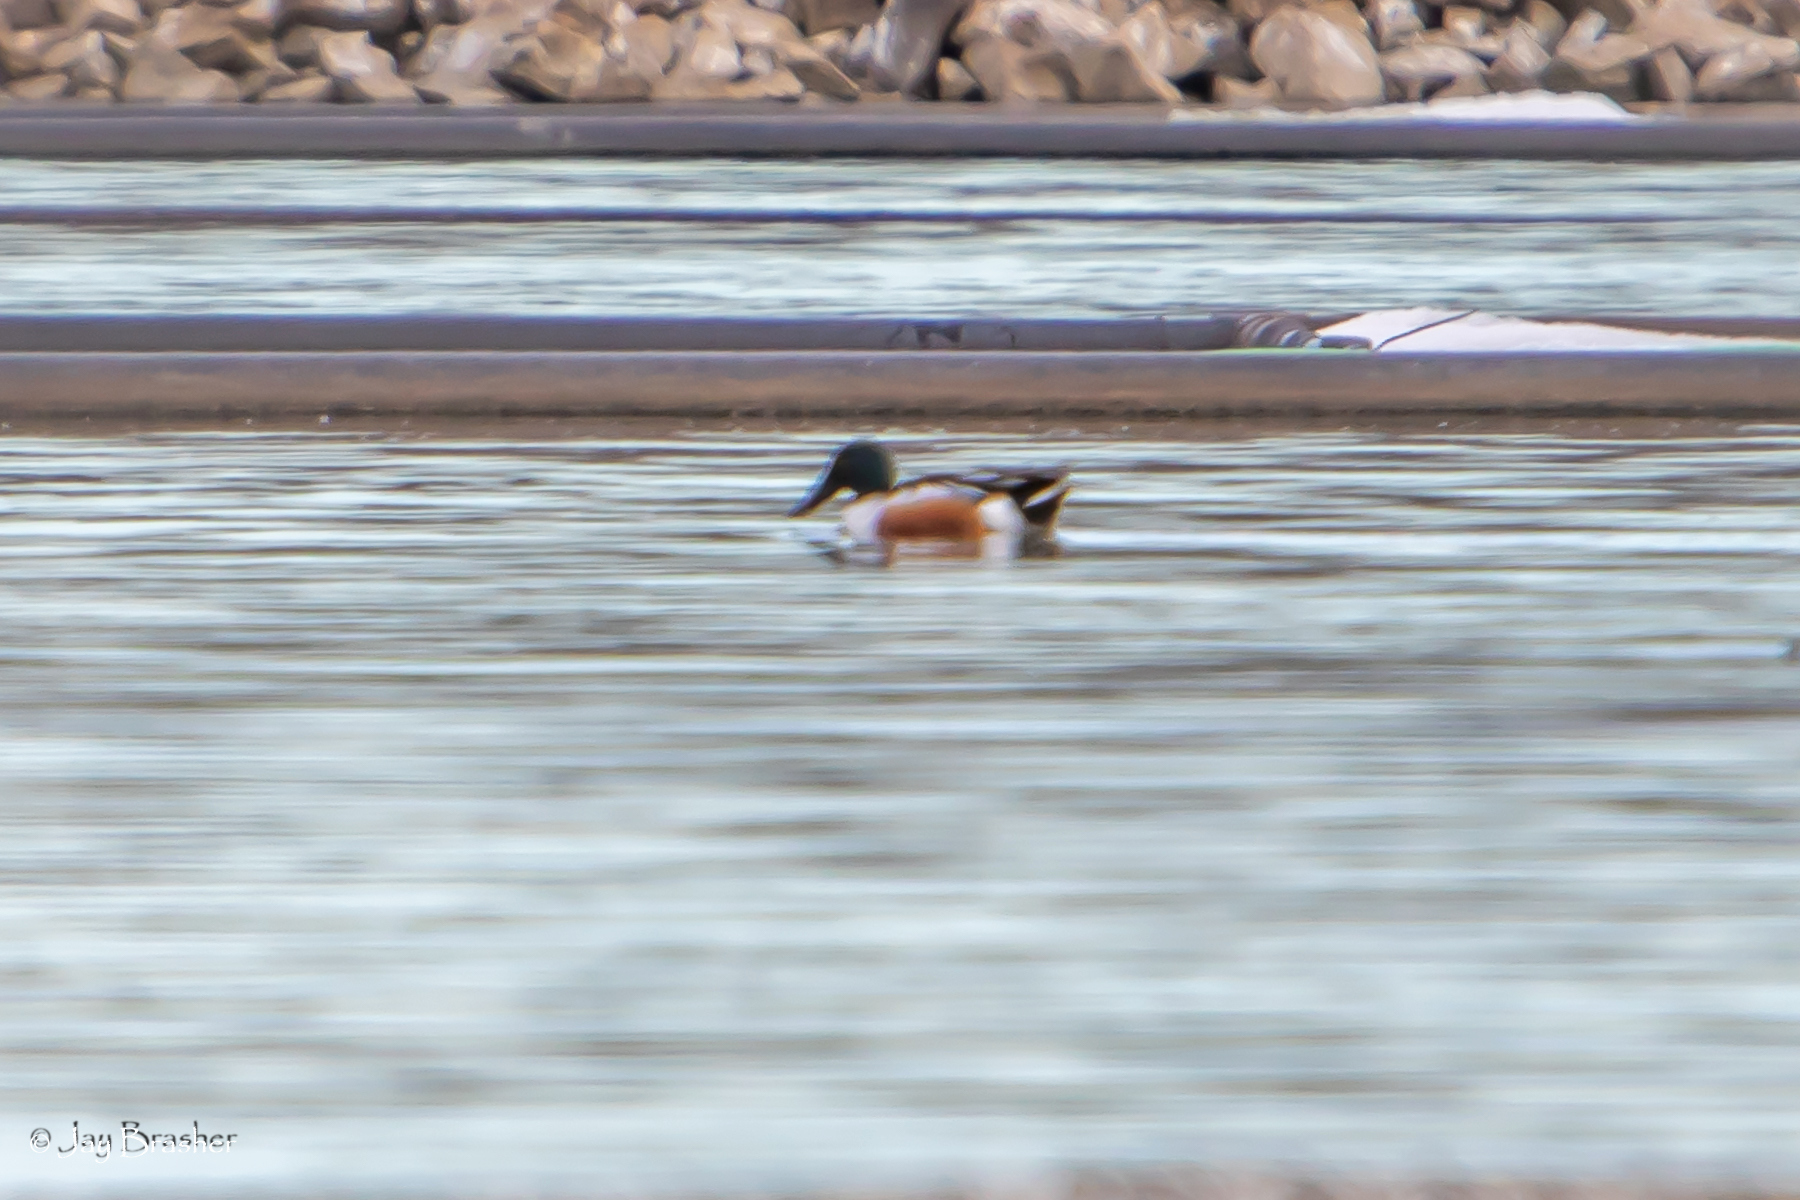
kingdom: Animalia
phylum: Chordata
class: Aves
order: Anseriformes
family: Anatidae
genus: Spatula
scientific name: Spatula clypeata
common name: Northern shoveler
